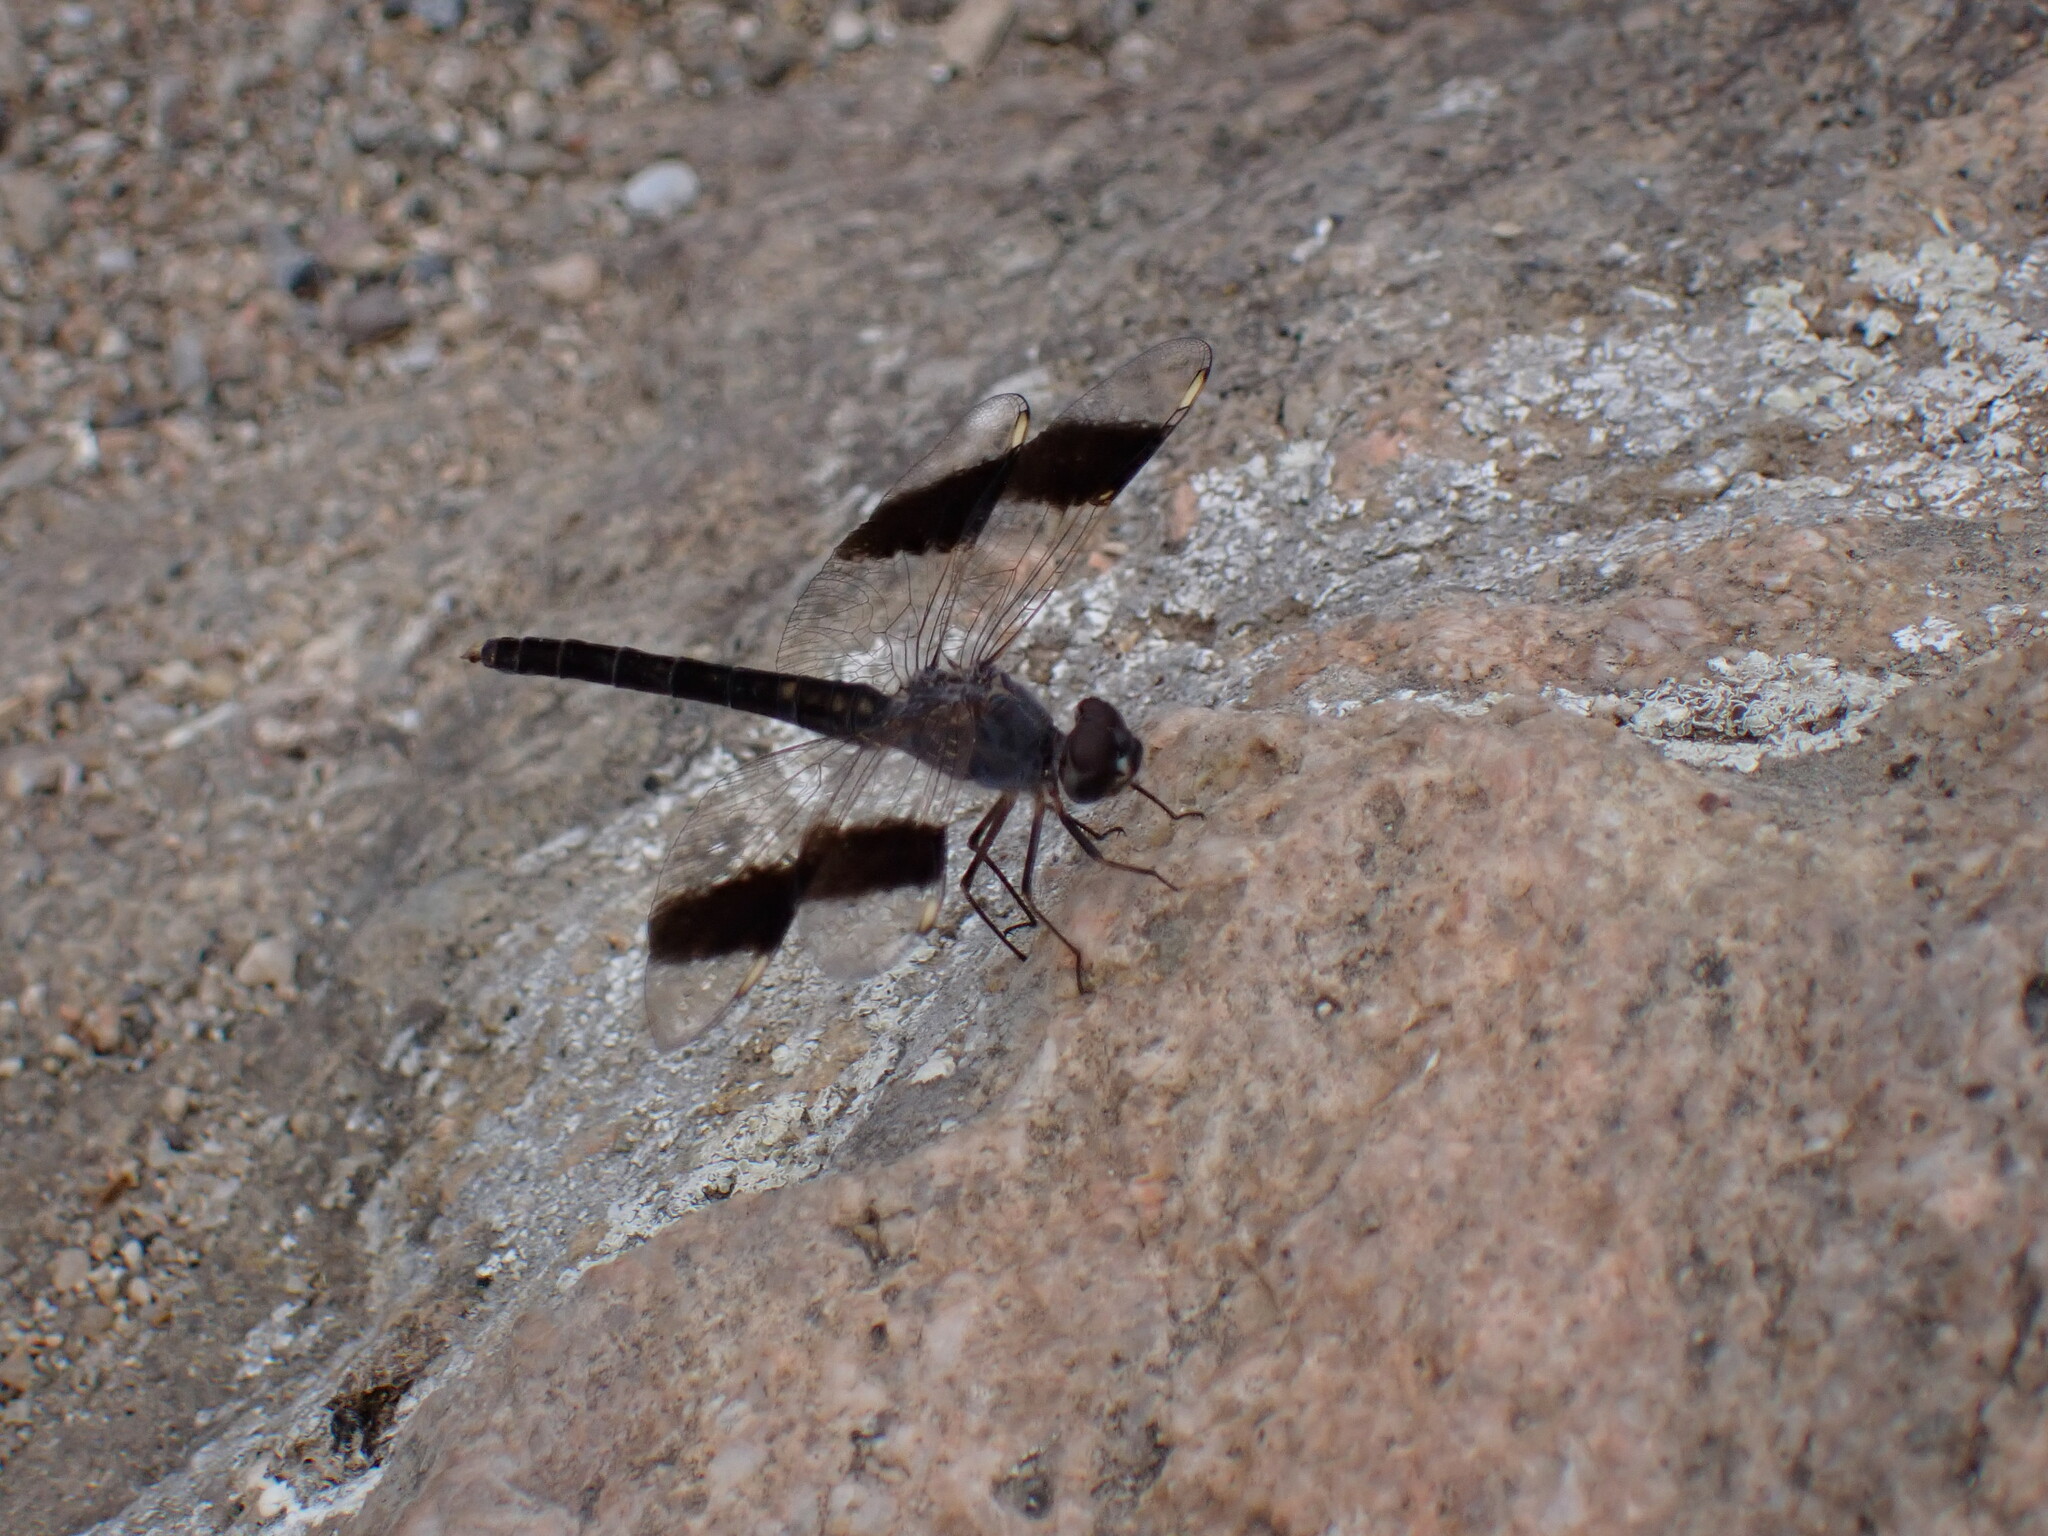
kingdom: Animalia
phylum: Arthropoda
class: Insecta
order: Odonata
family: Libellulidae
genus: Brachythemis
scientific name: Brachythemis impartita
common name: Banded groundling
